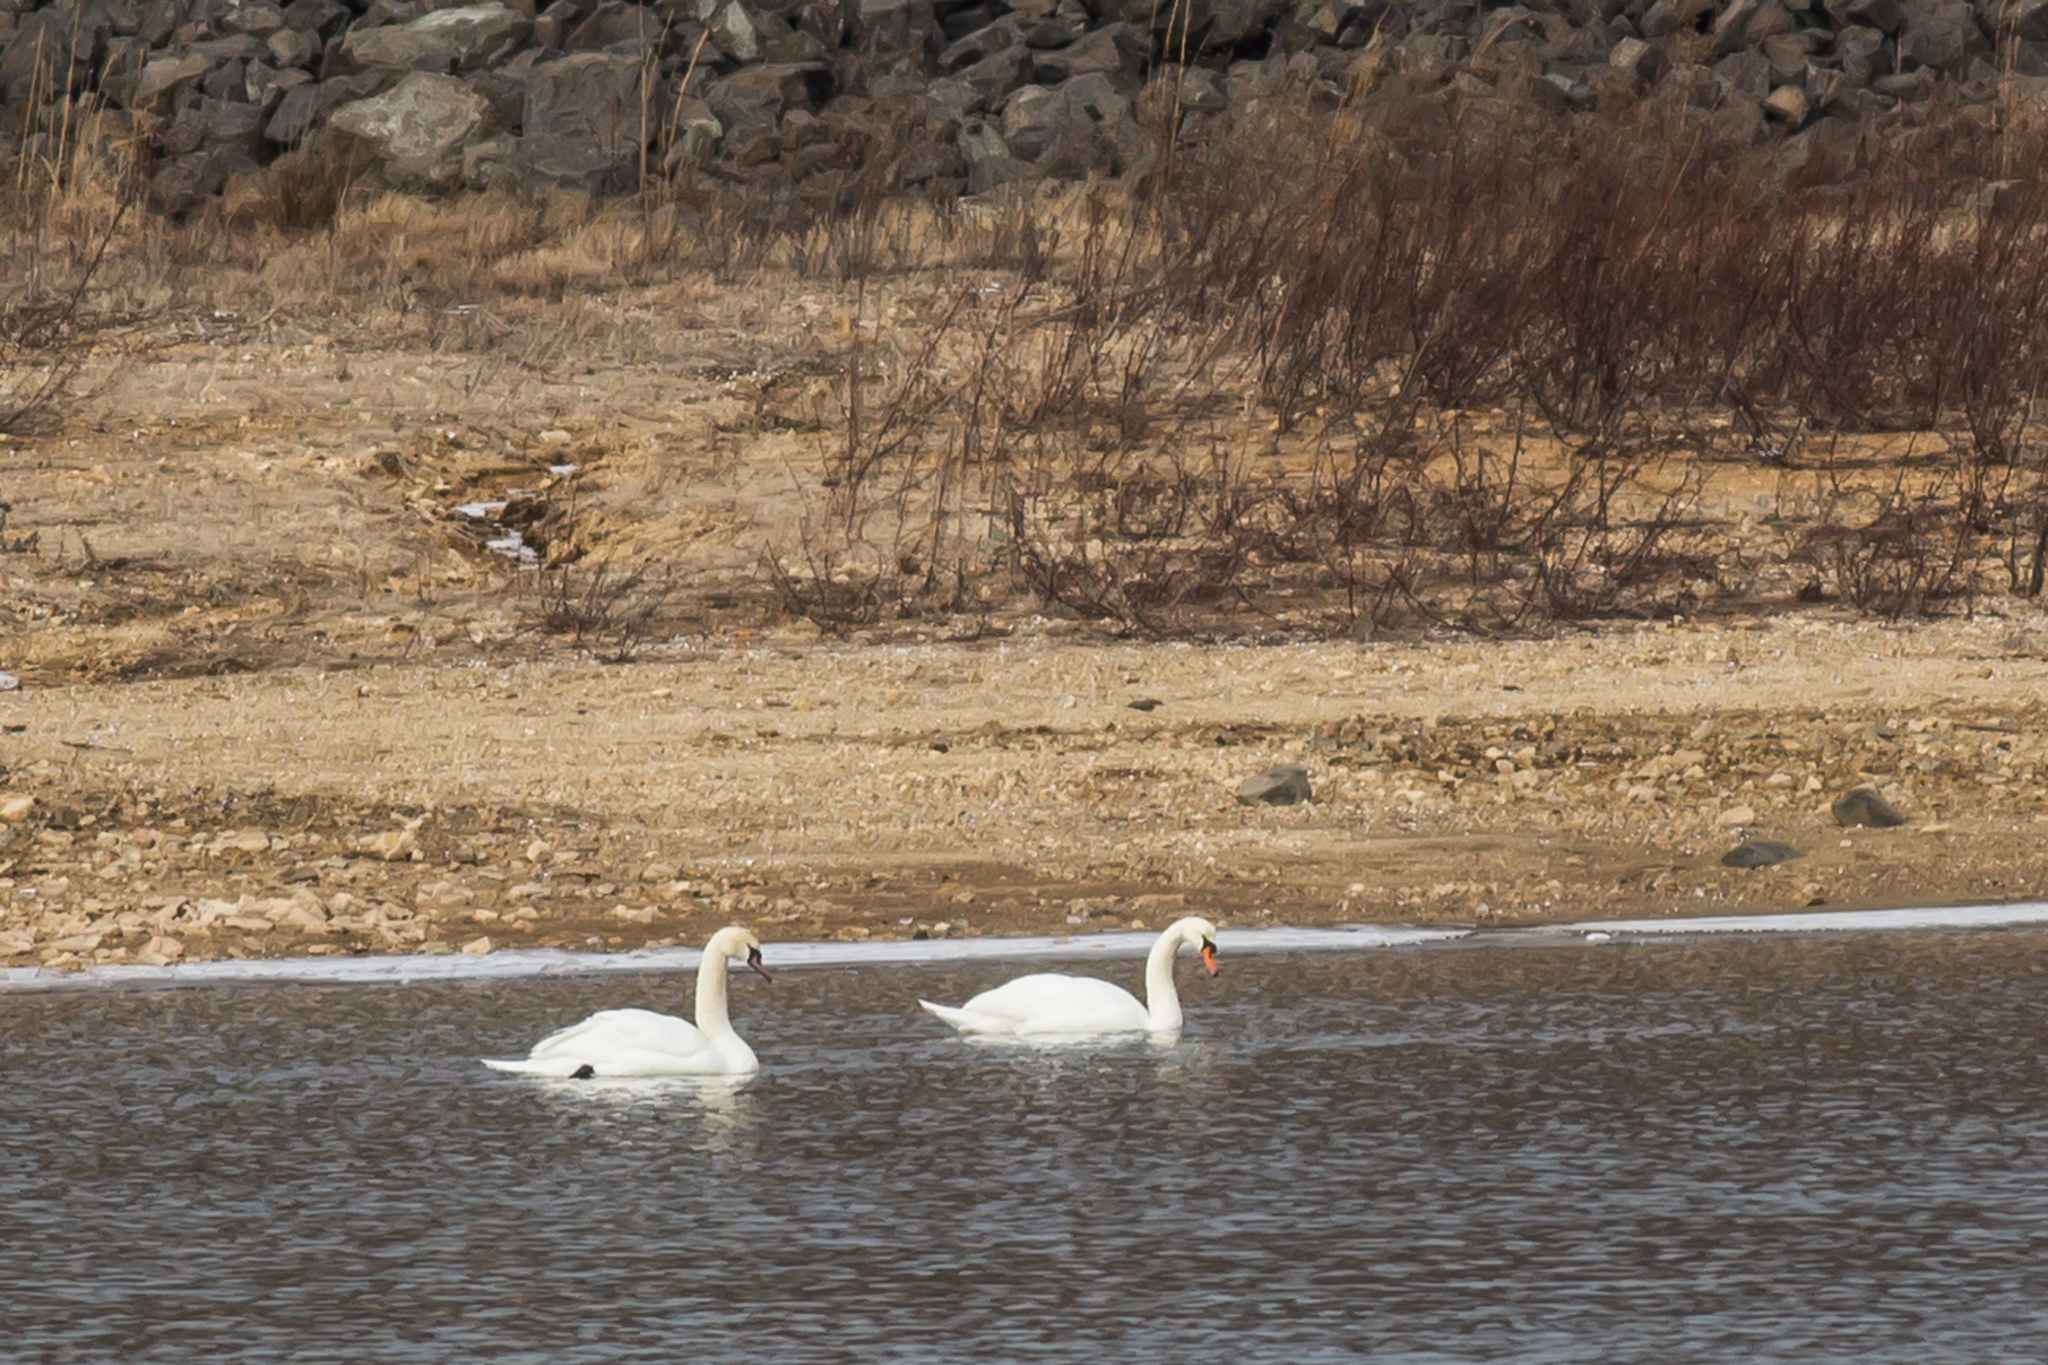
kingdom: Animalia
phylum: Chordata
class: Aves
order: Anseriformes
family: Anatidae
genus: Cygnus
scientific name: Cygnus olor
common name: Mute swan
